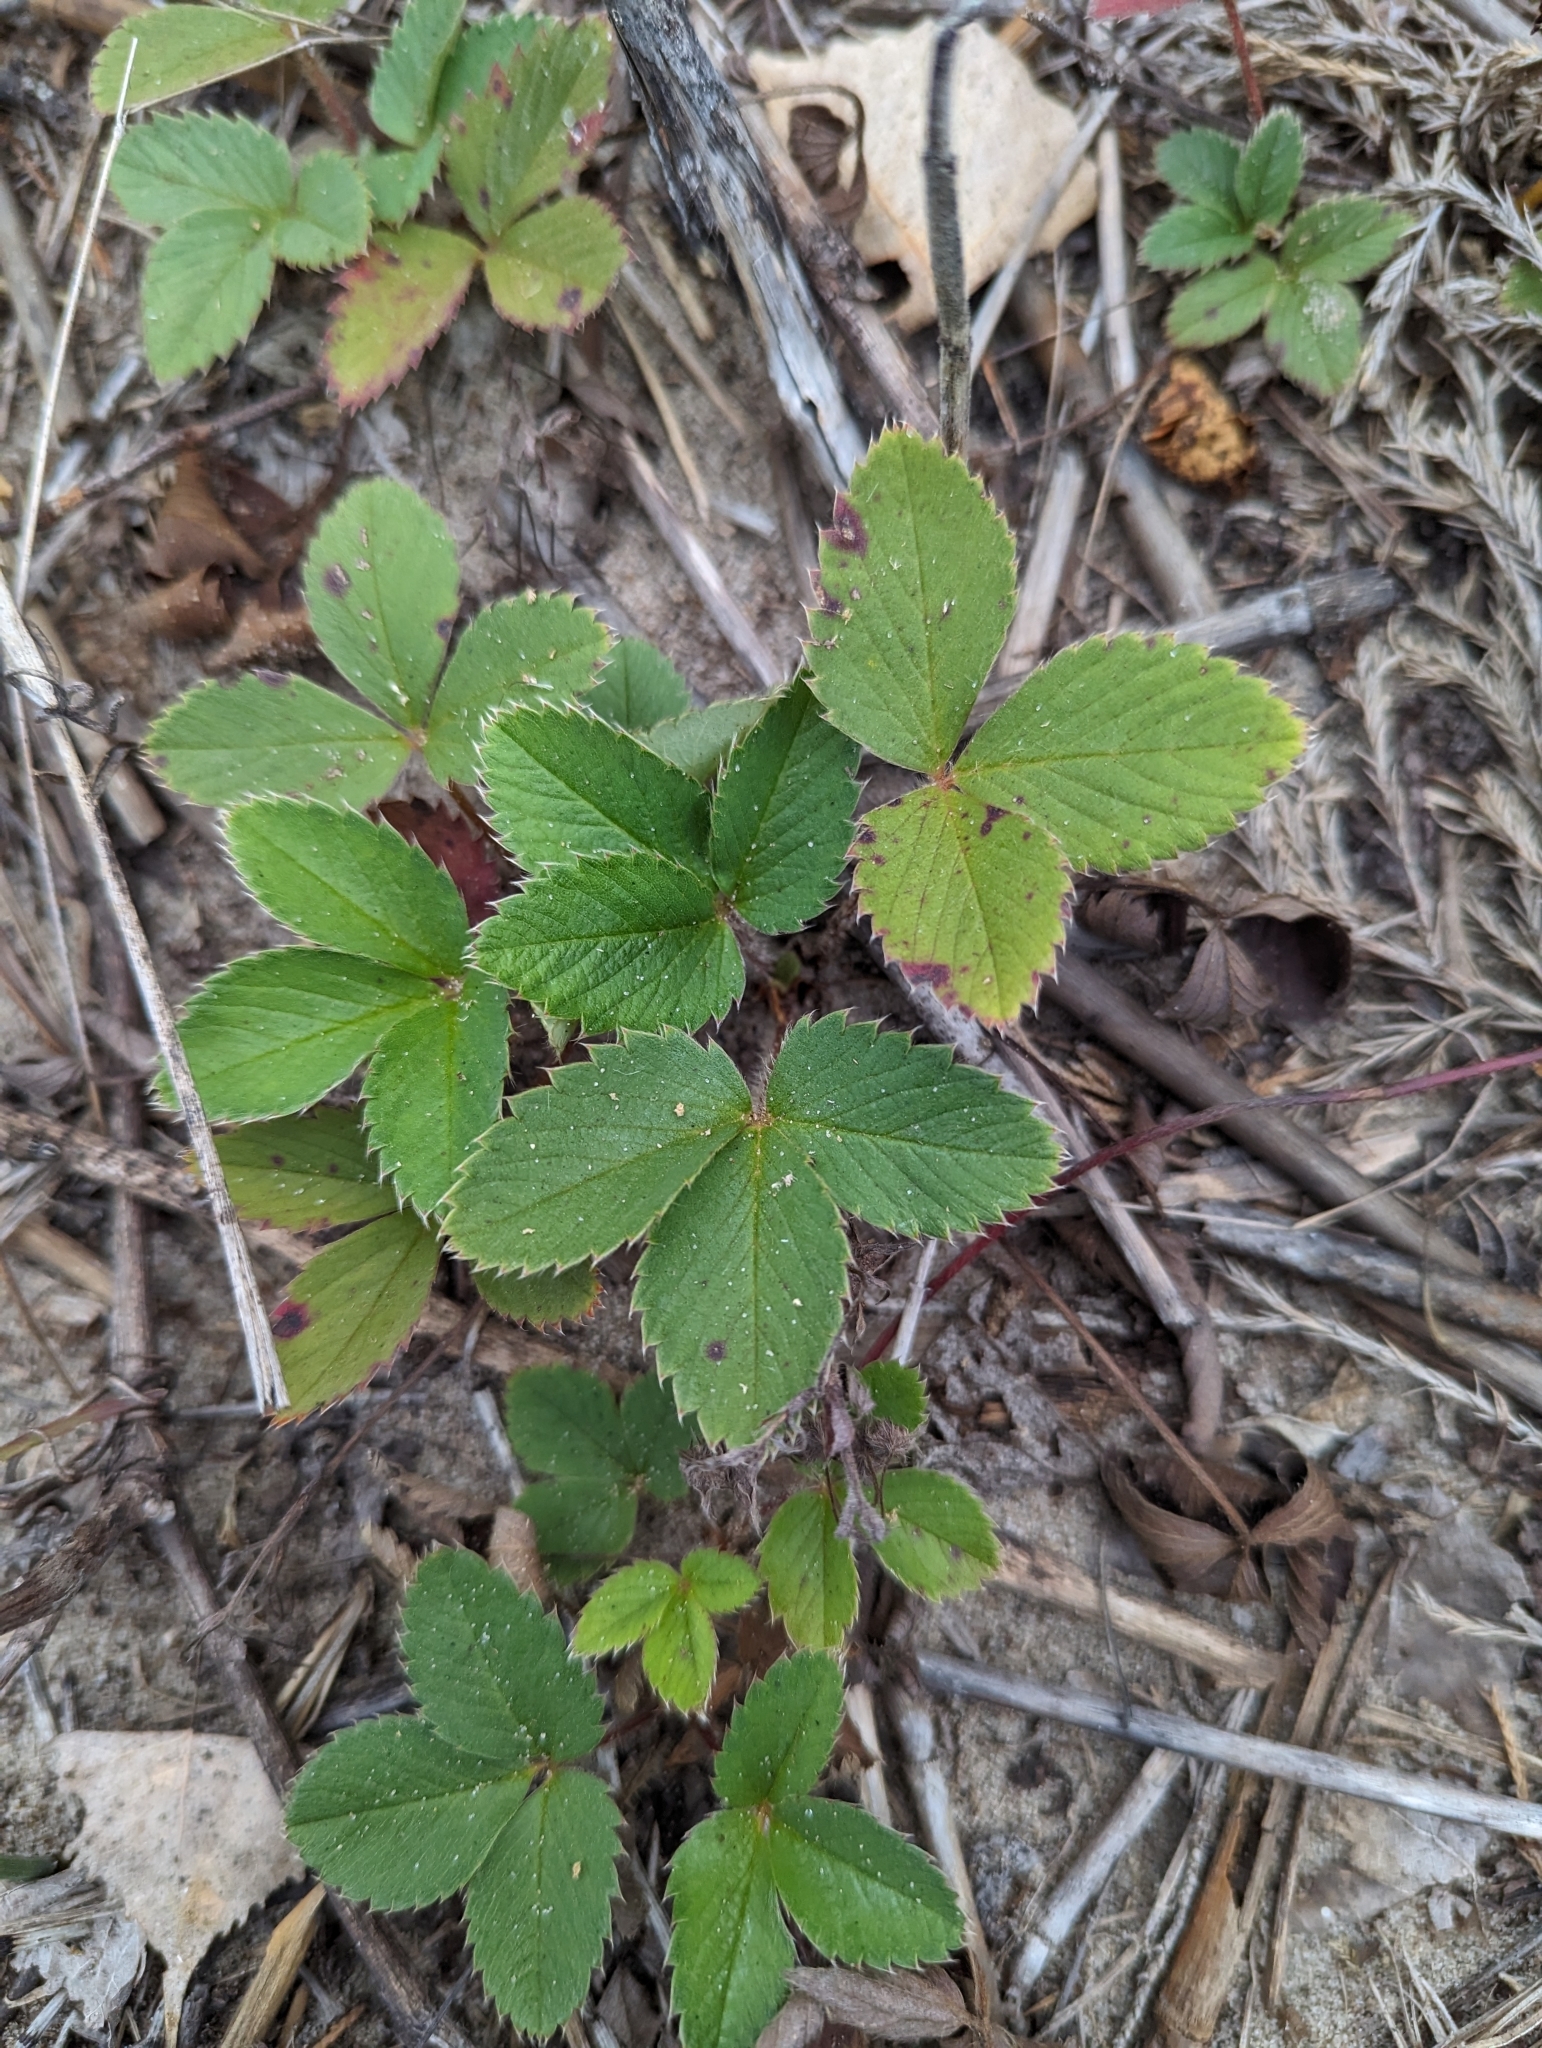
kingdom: Plantae
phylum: Tracheophyta
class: Magnoliopsida
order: Rosales
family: Rosaceae
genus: Fragaria
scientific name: Fragaria virginiana
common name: Thickleaved wild strawberry
